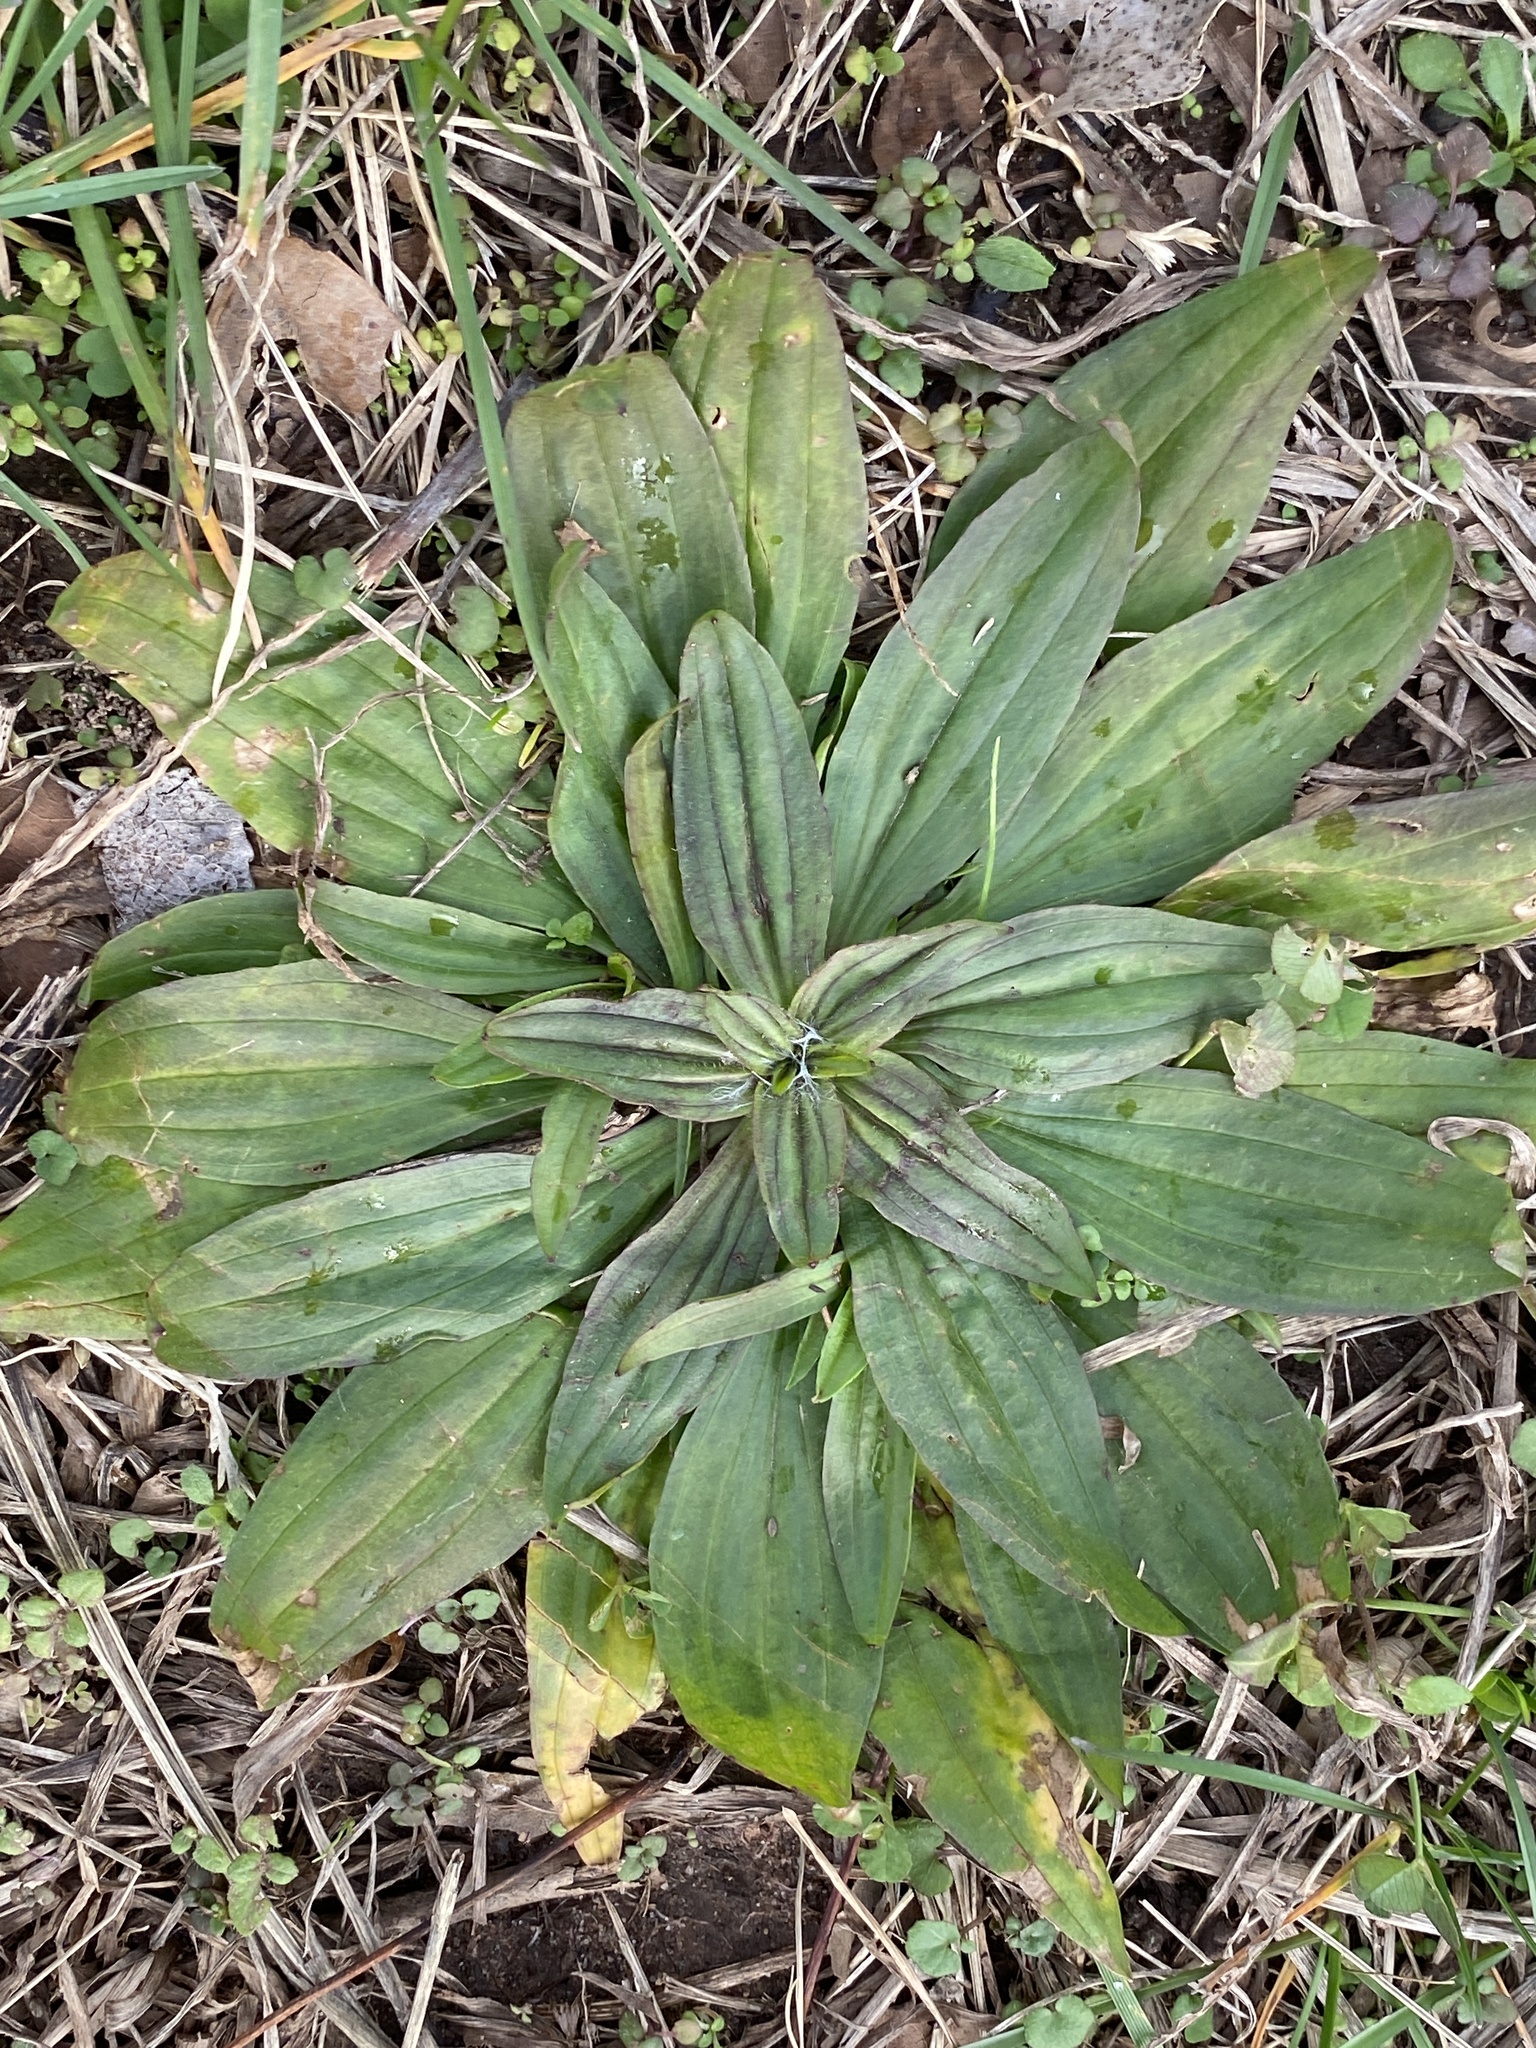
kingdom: Plantae
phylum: Tracheophyta
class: Magnoliopsida
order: Lamiales
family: Plantaginaceae
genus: Plantago
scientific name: Plantago lanceolata
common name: Ribwort plantain
